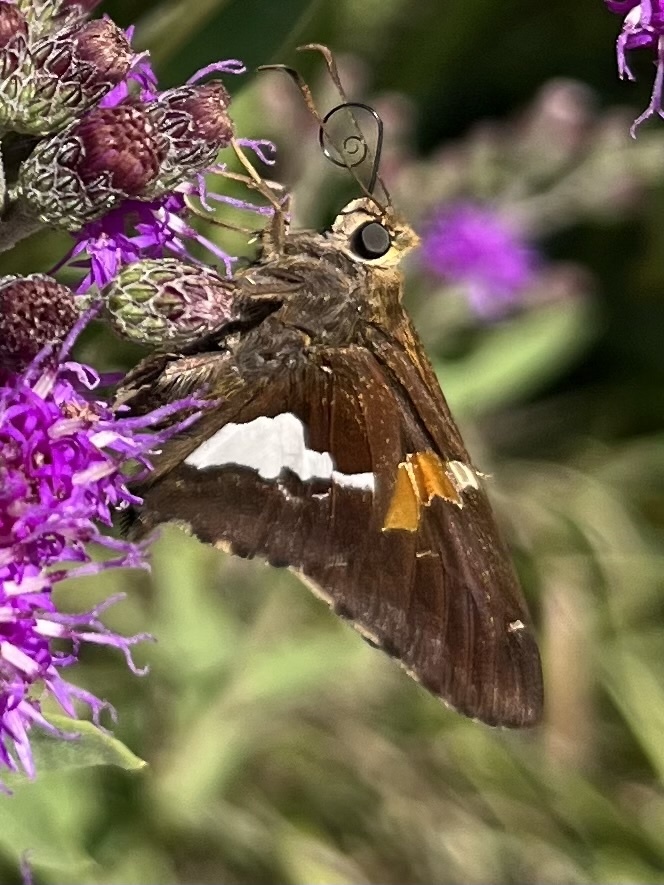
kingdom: Animalia
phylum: Arthropoda
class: Insecta
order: Lepidoptera
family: Hesperiidae
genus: Epargyreus
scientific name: Epargyreus clarus
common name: Silver-spotted skipper
